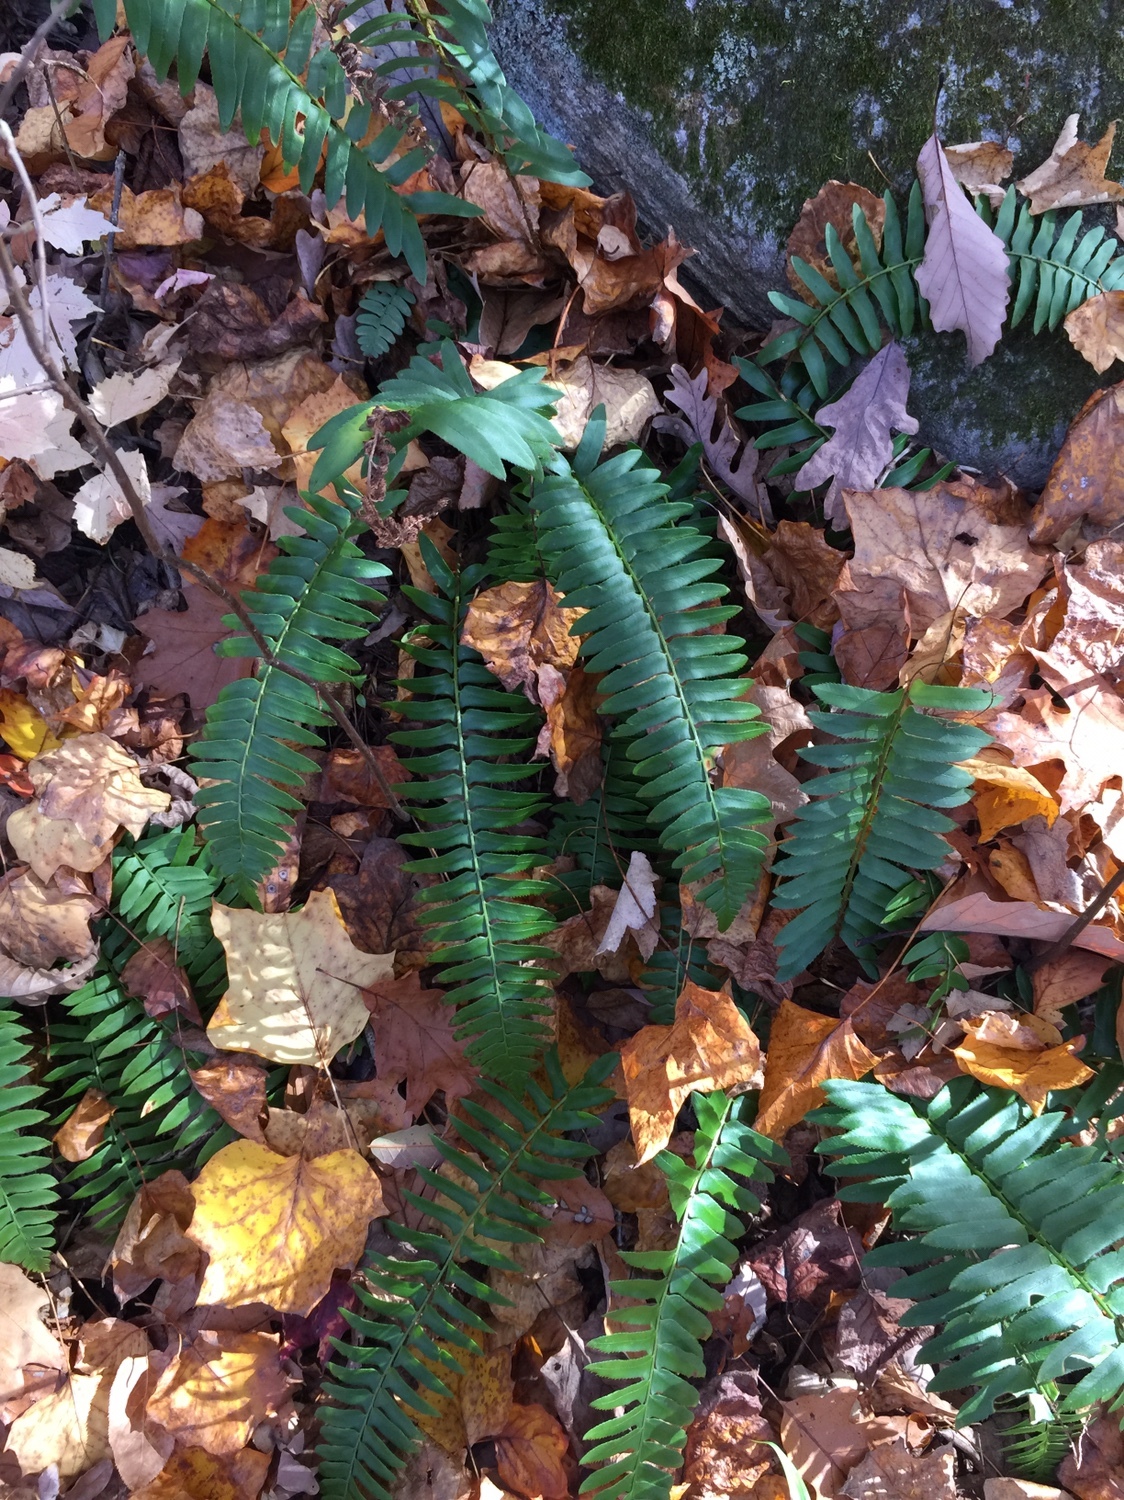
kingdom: Plantae
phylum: Tracheophyta
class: Polypodiopsida
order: Polypodiales
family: Dryopteridaceae
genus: Polystichum
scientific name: Polystichum acrostichoides
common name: Christmas fern
